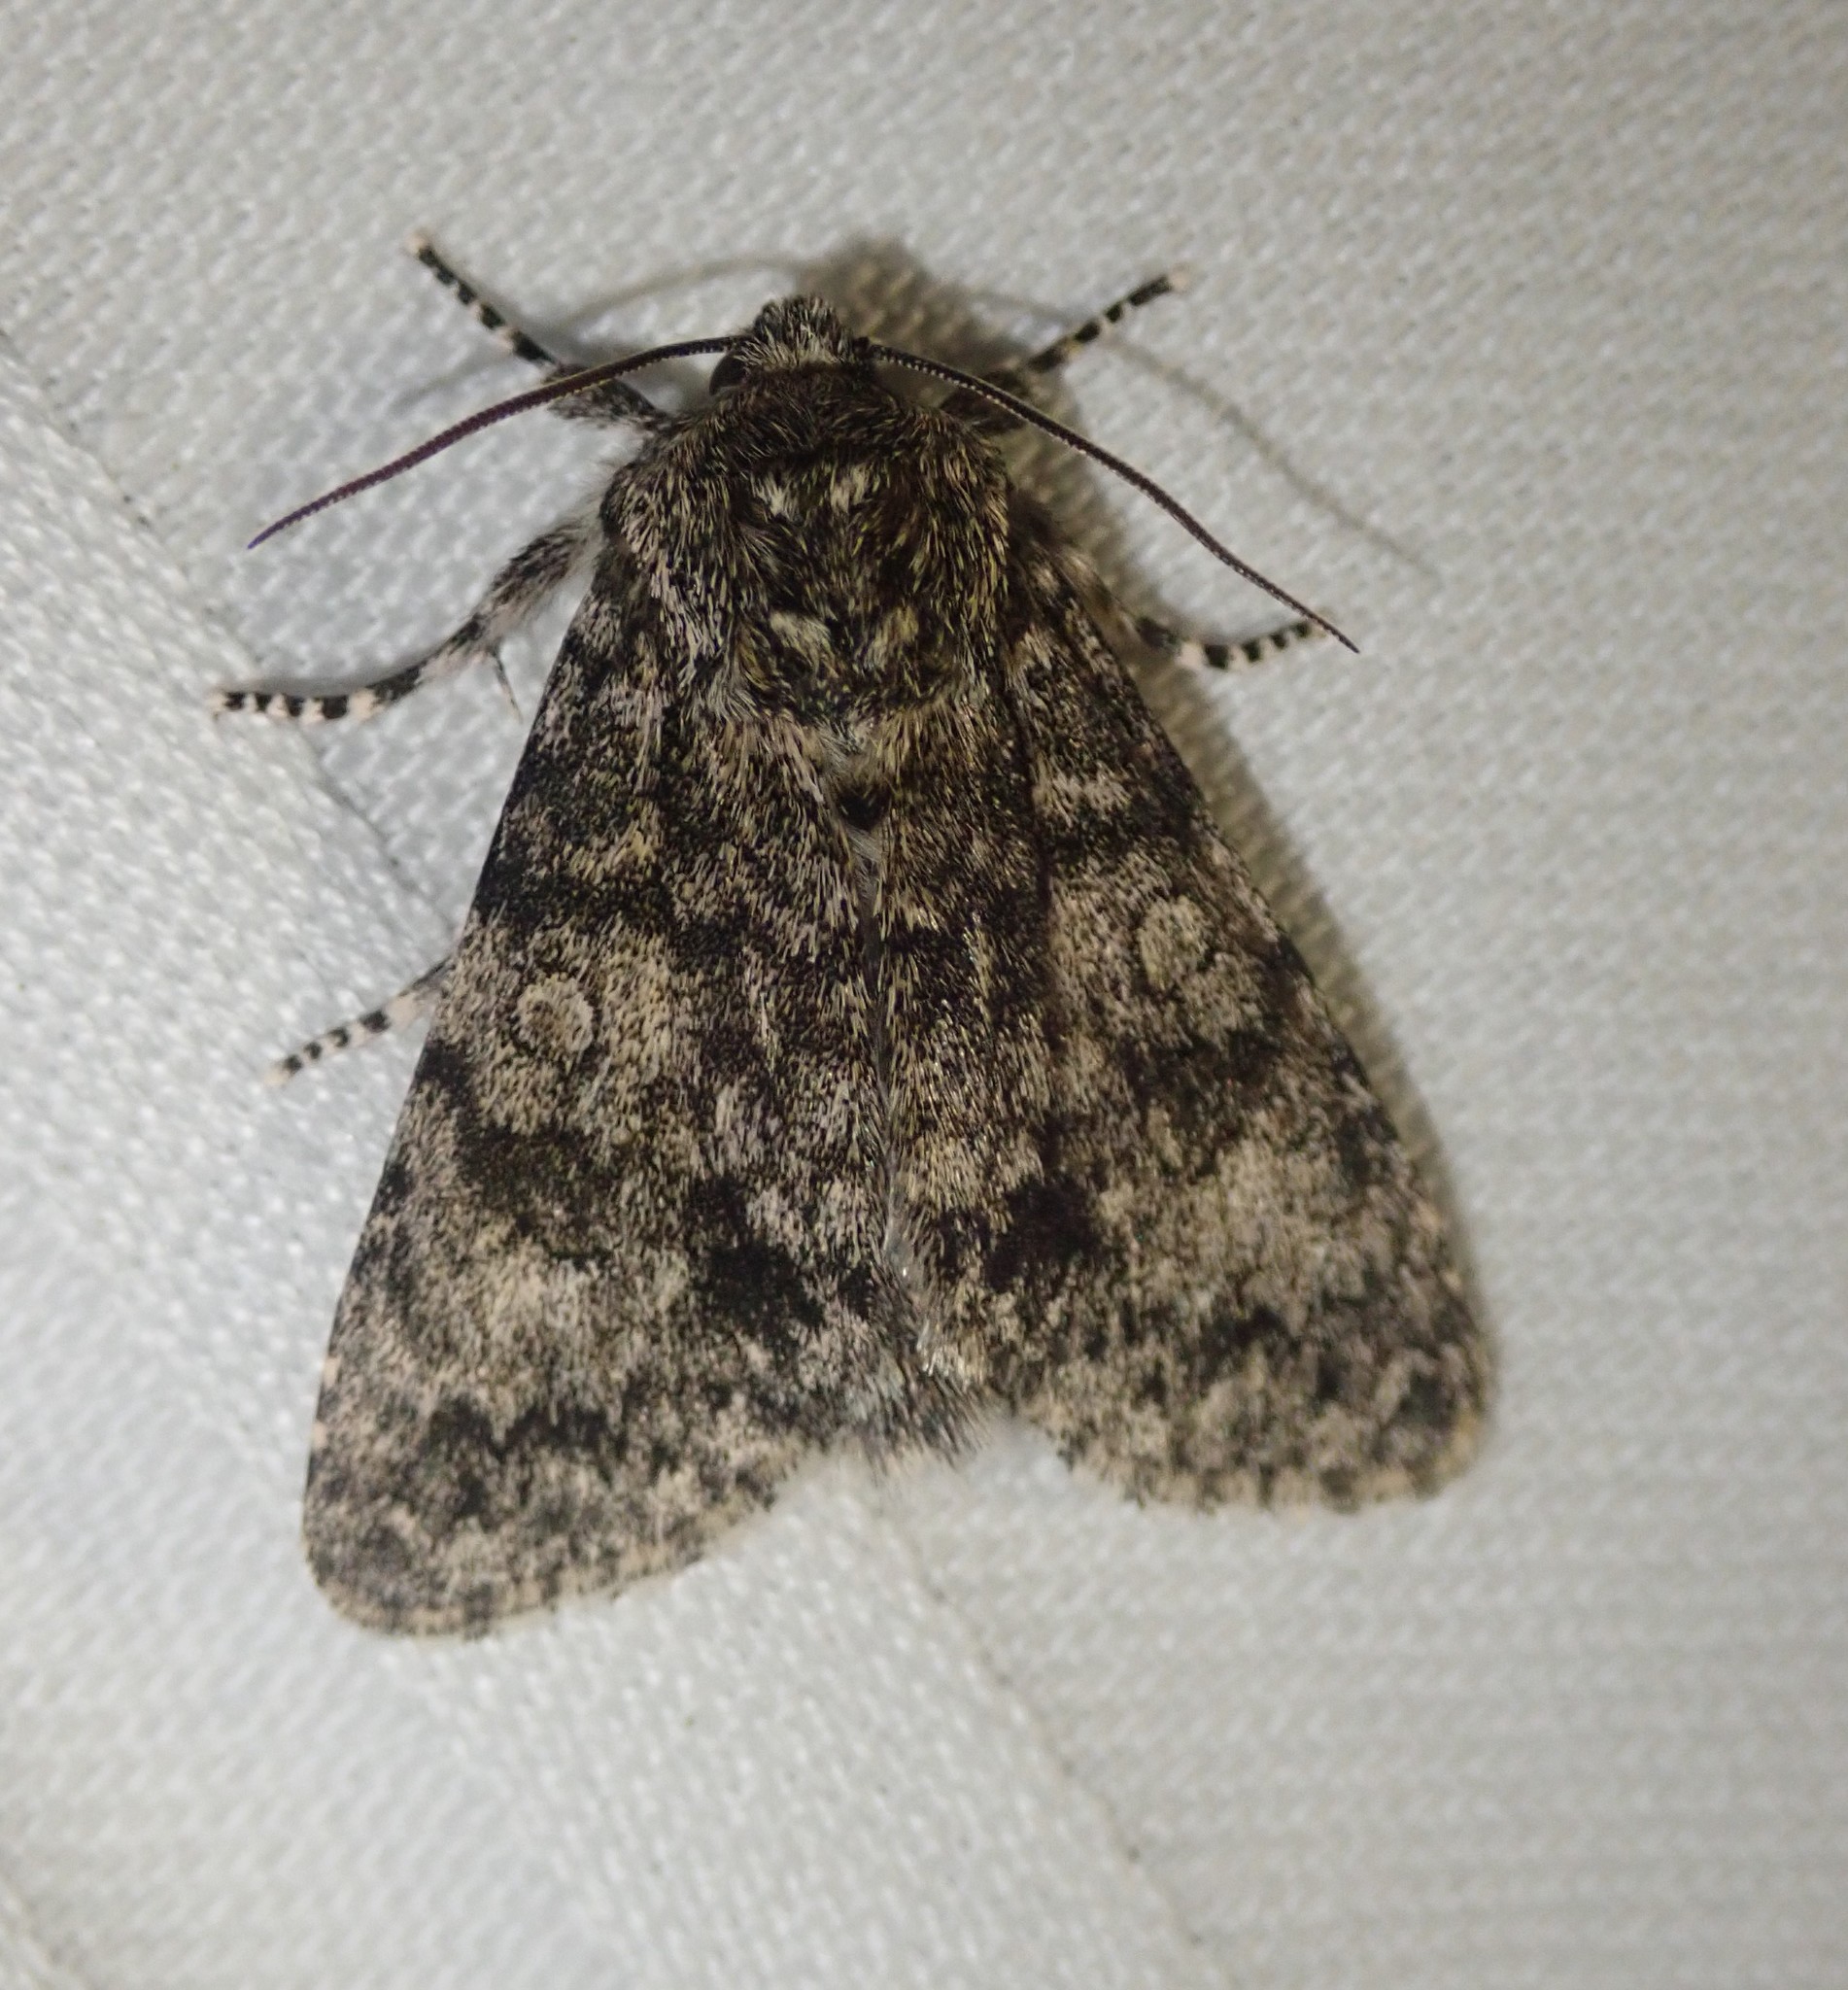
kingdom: Animalia
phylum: Arthropoda
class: Insecta
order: Lepidoptera
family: Noctuidae
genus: Acronicta
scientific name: Acronicta megacephala
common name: Poplar grey
